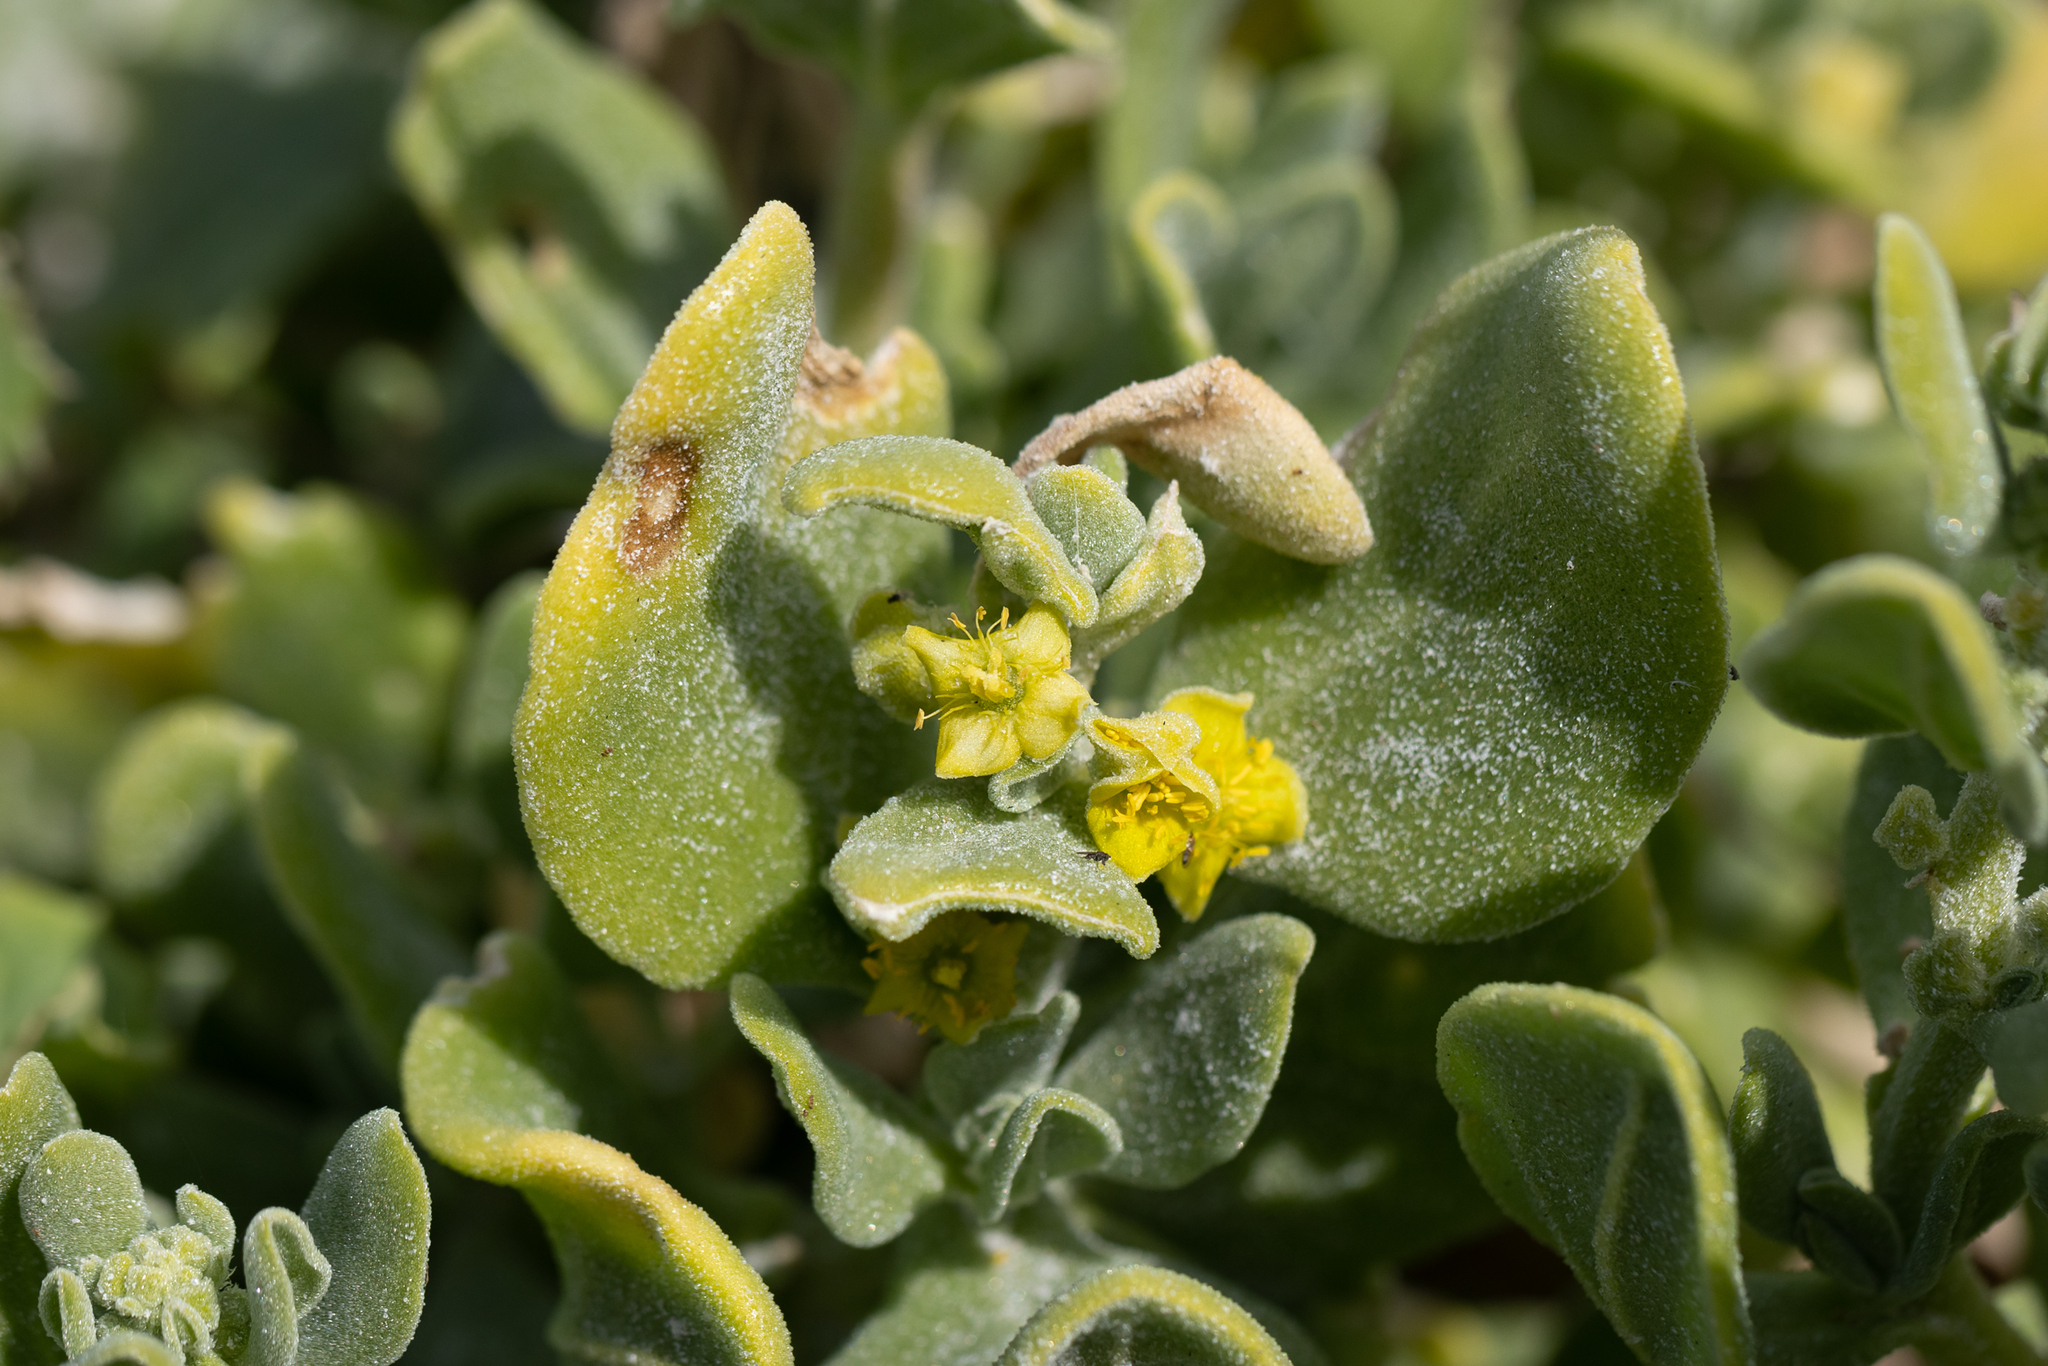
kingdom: Plantae
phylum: Tracheophyta
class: Magnoliopsida
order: Caryophyllales
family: Aizoaceae
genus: Tetragonia
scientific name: Tetragonia decumbens
